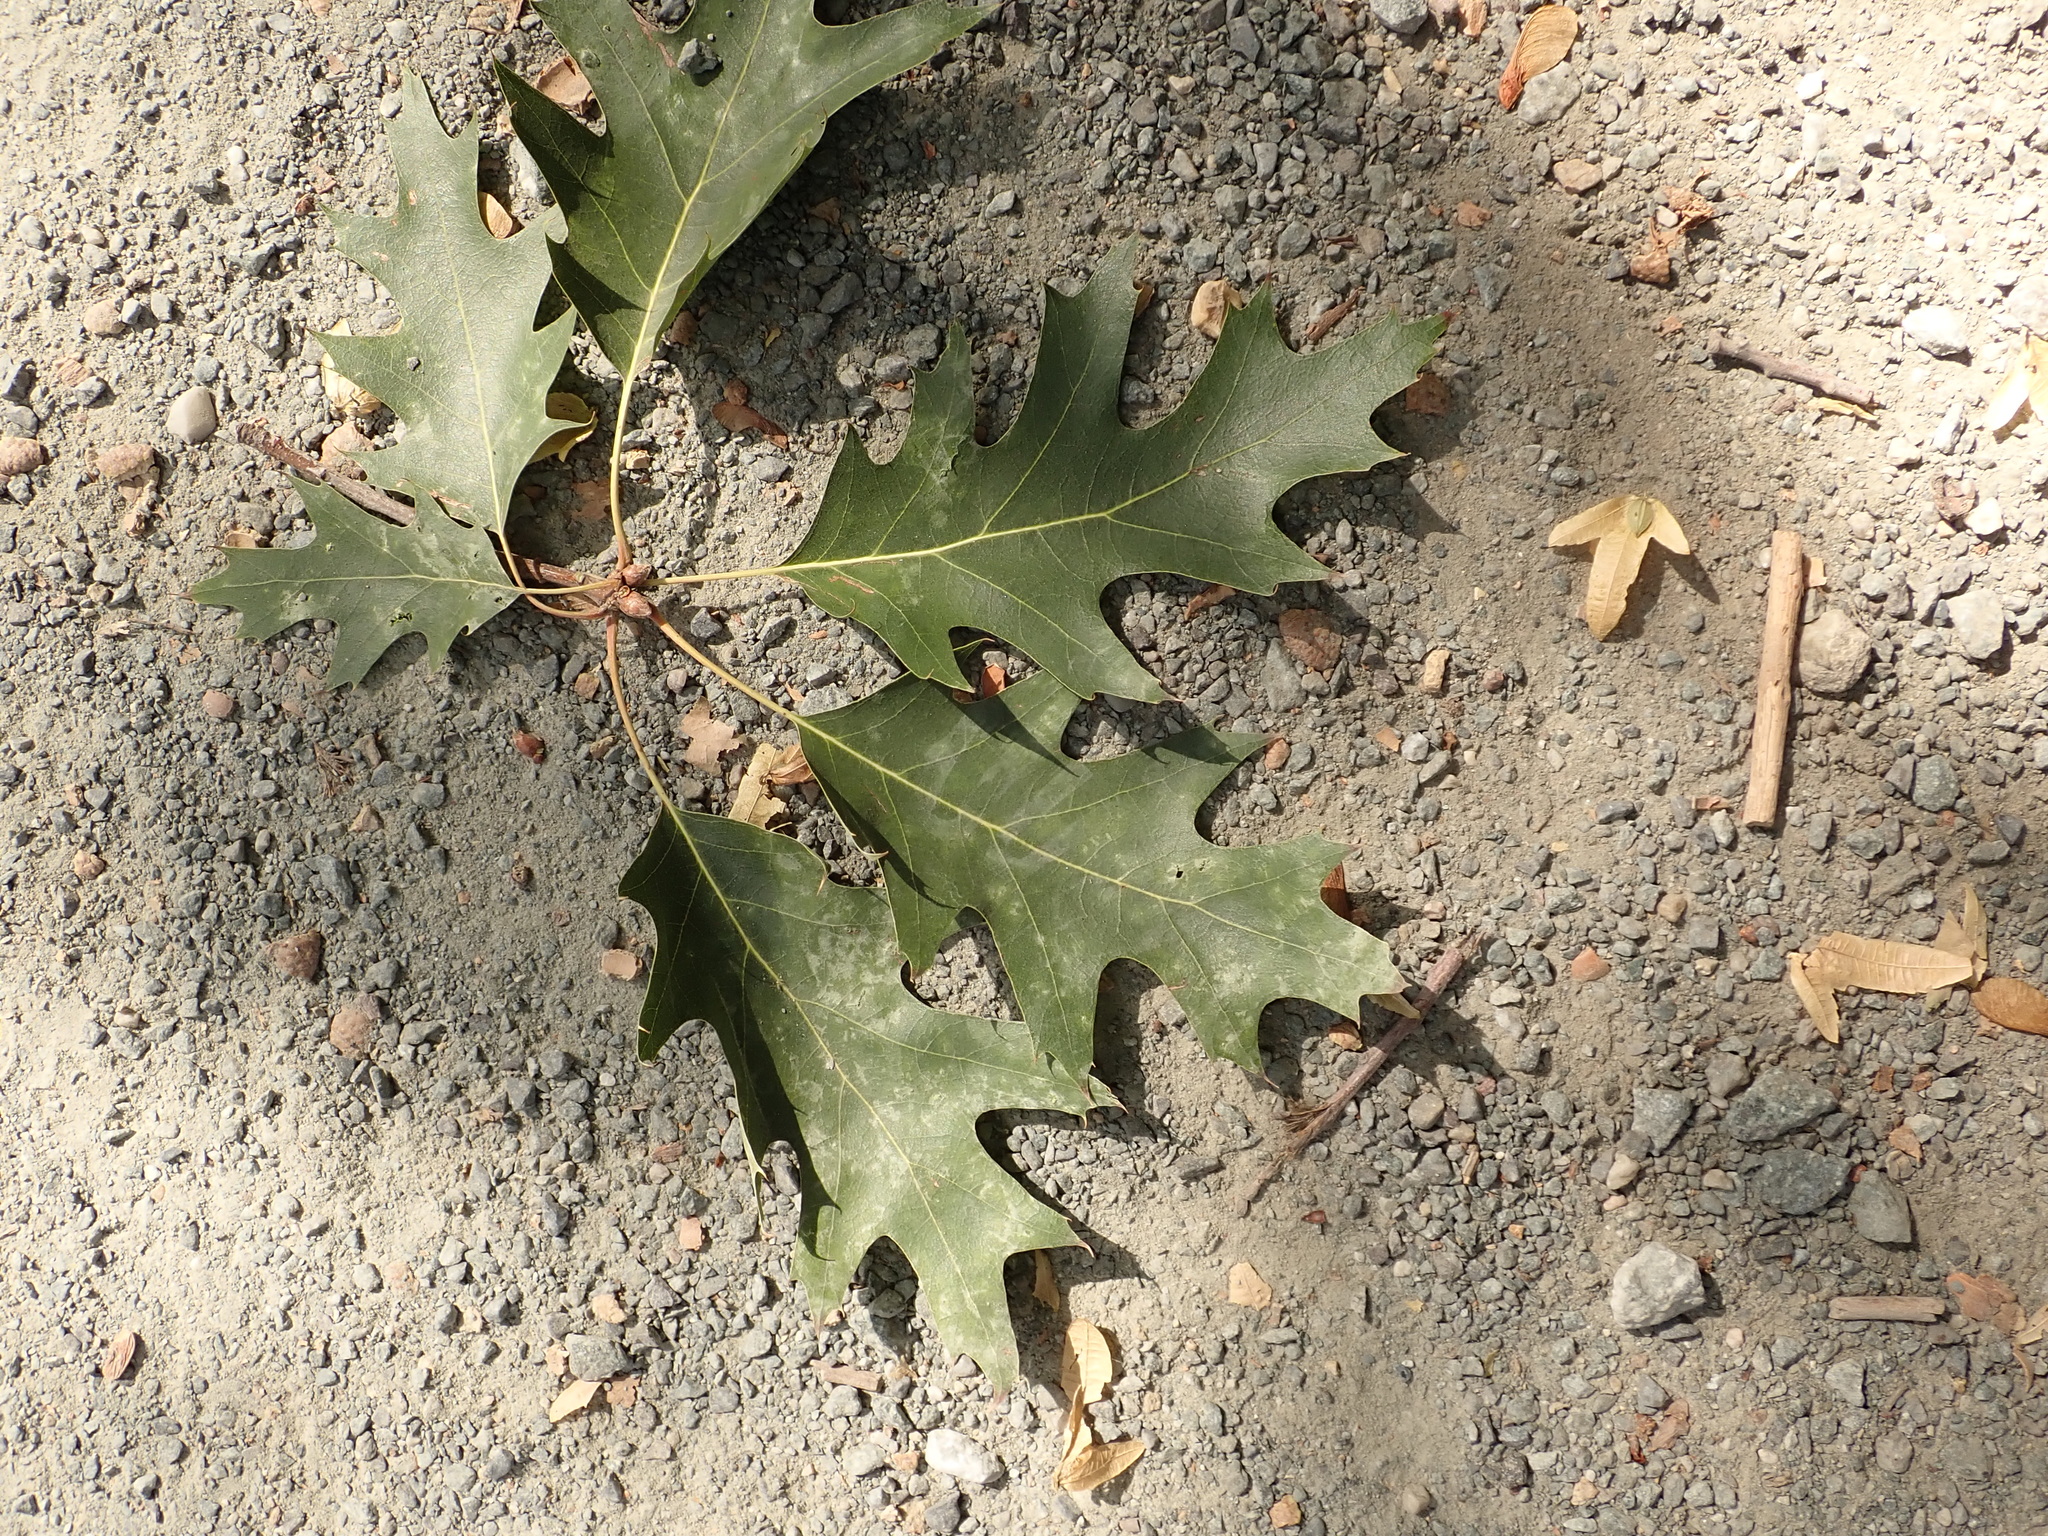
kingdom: Plantae
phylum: Tracheophyta
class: Magnoliopsida
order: Fagales
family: Fagaceae
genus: Quercus
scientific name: Quercus rubra
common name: Red oak
